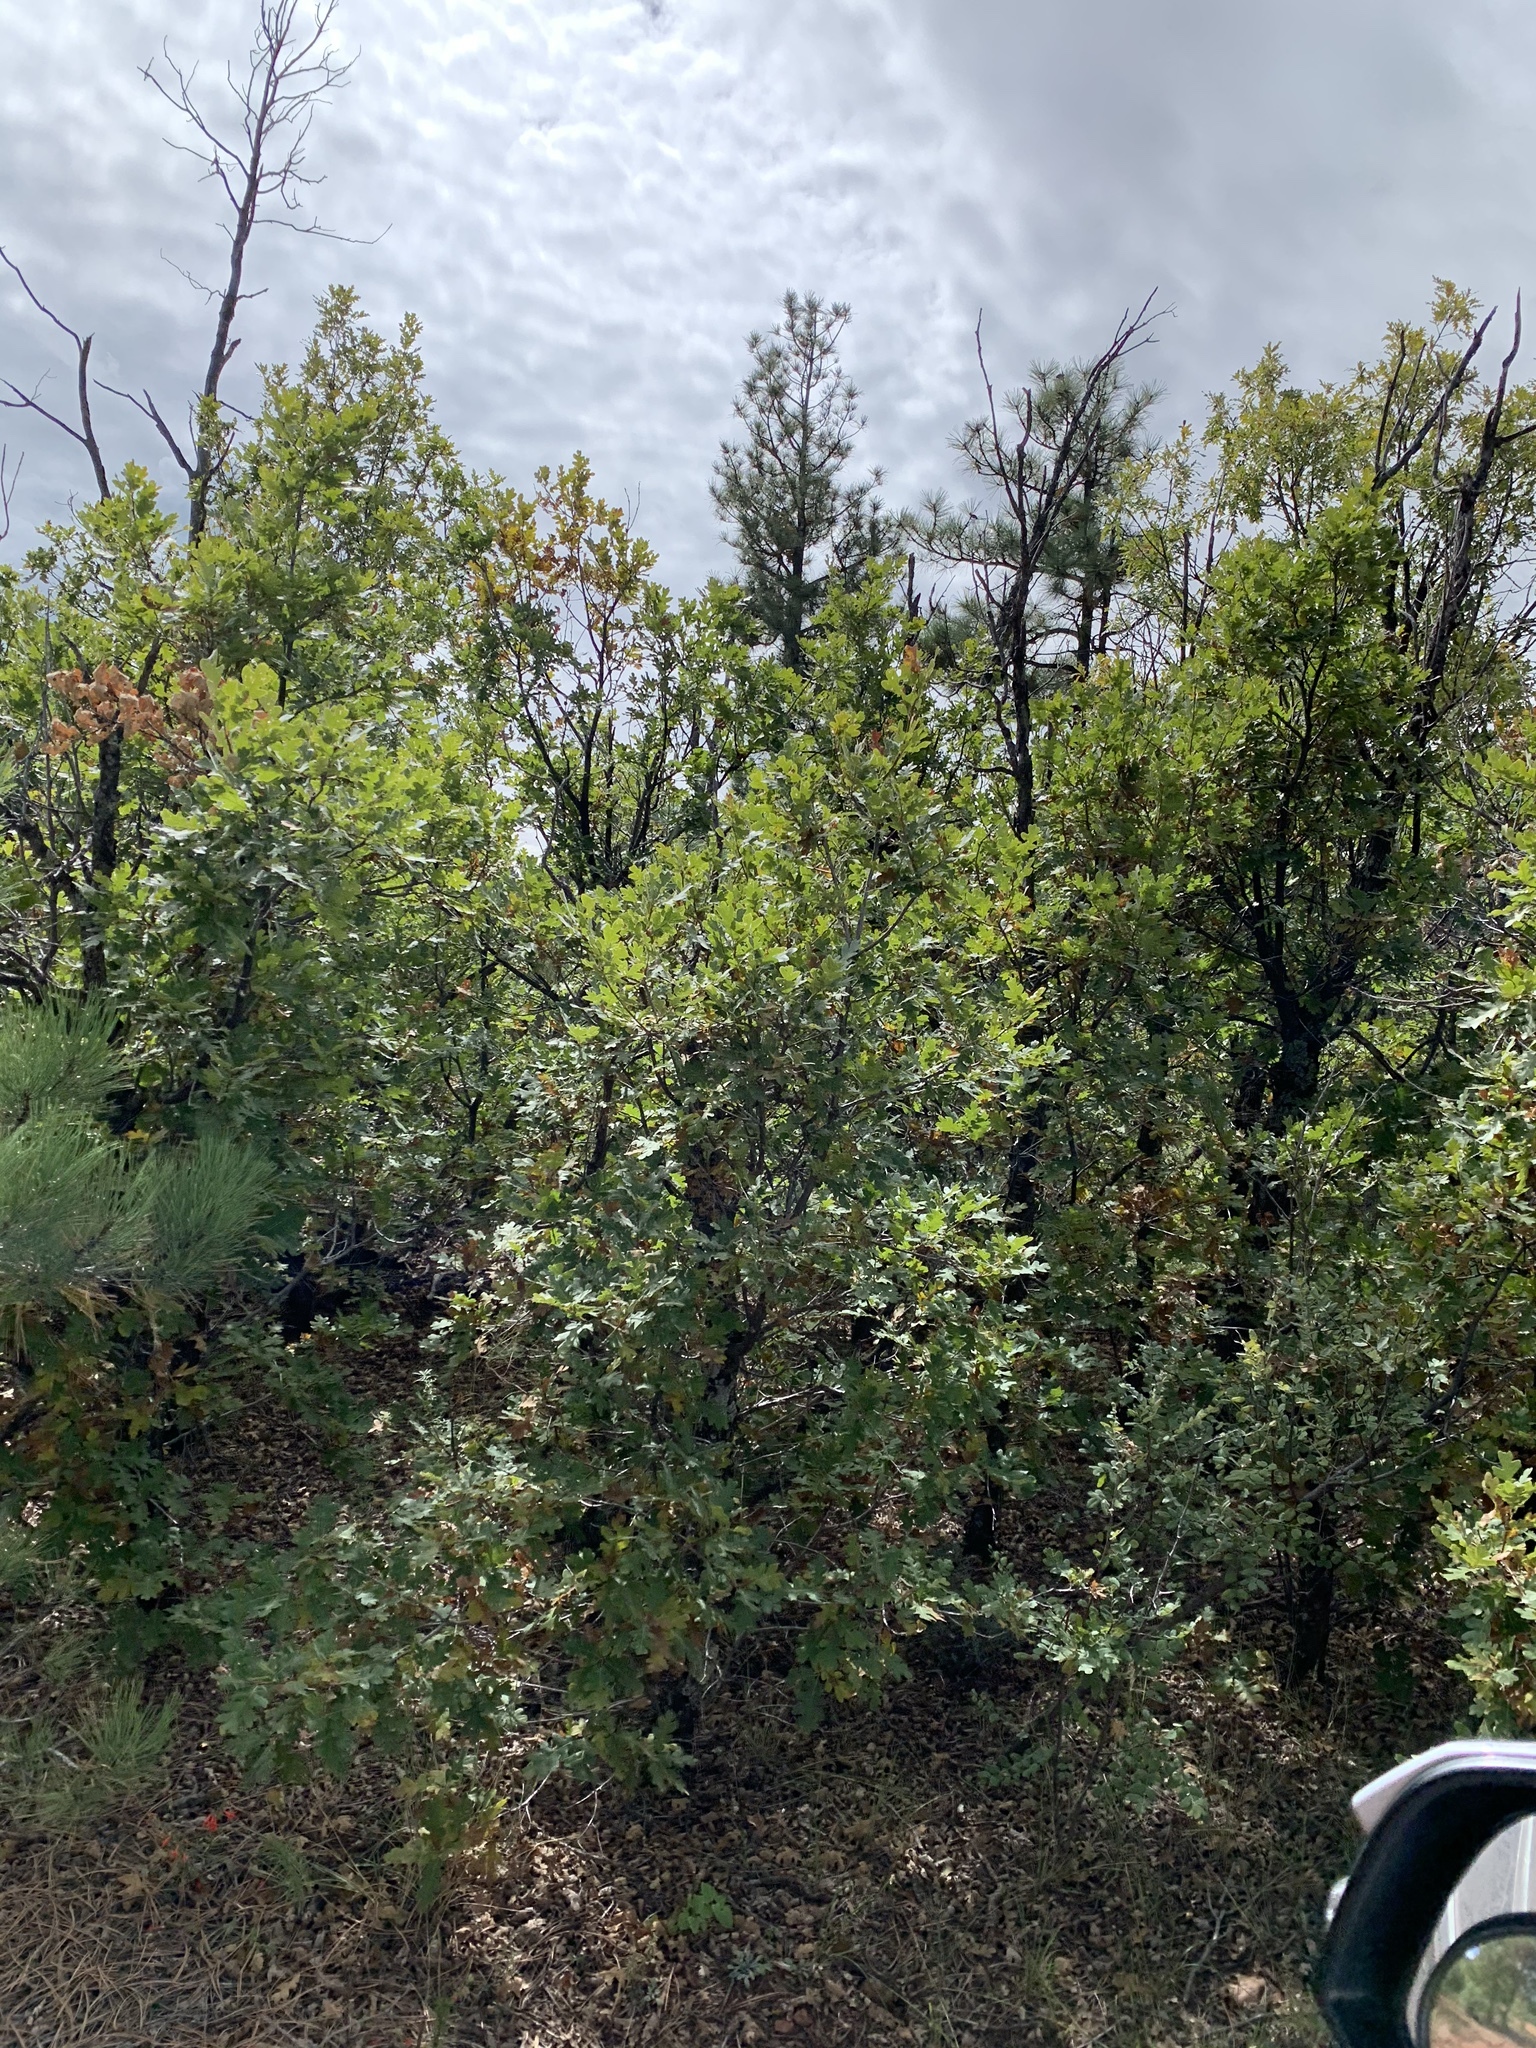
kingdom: Plantae
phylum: Tracheophyta
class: Magnoliopsida
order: Fagales
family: Fagaceae
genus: Quercus
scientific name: Quercus gambelii
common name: Gambel oak
